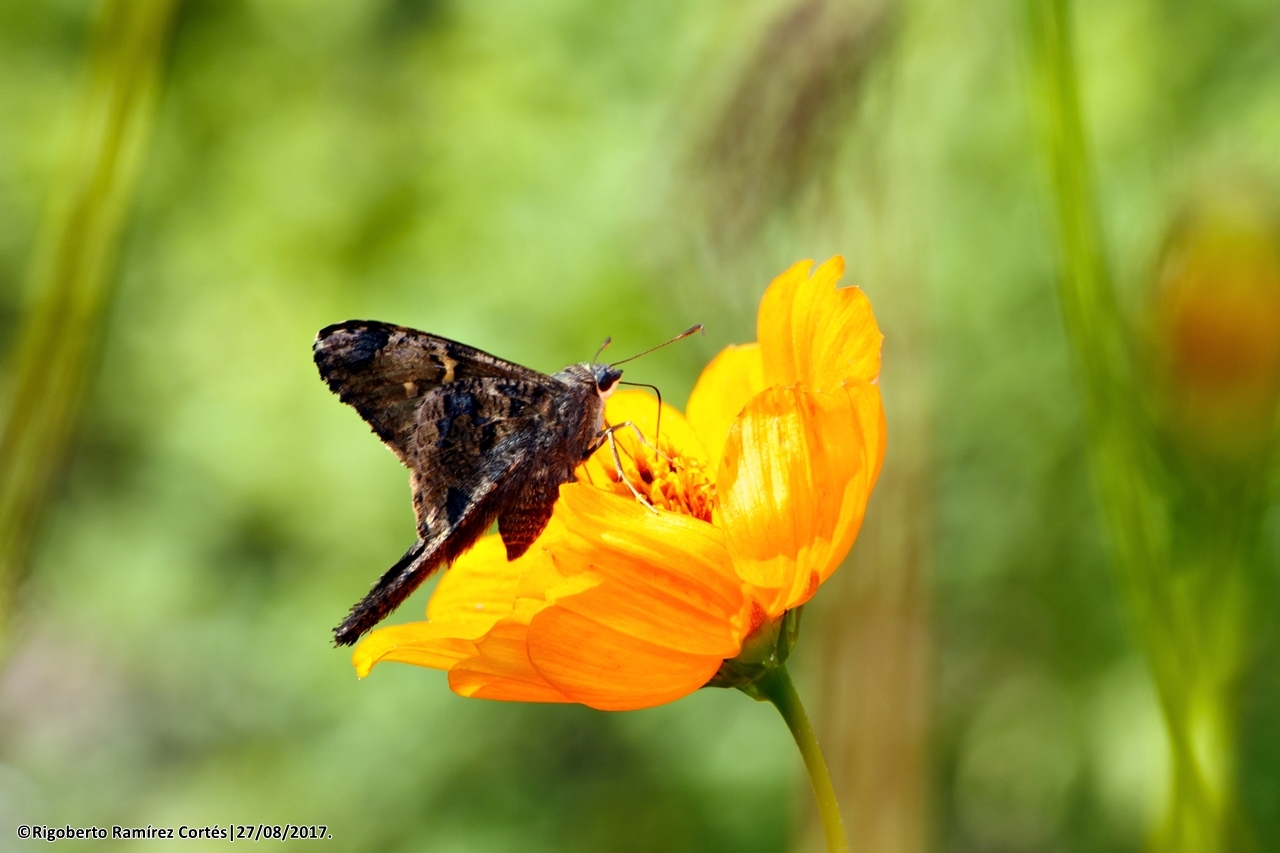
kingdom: Animalia
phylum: Arthropoda
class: Insecta
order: Lepidoptera
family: Hesperiidae
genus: Typhedanus
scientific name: Typhedanus undulatus
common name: Mottled longtail
